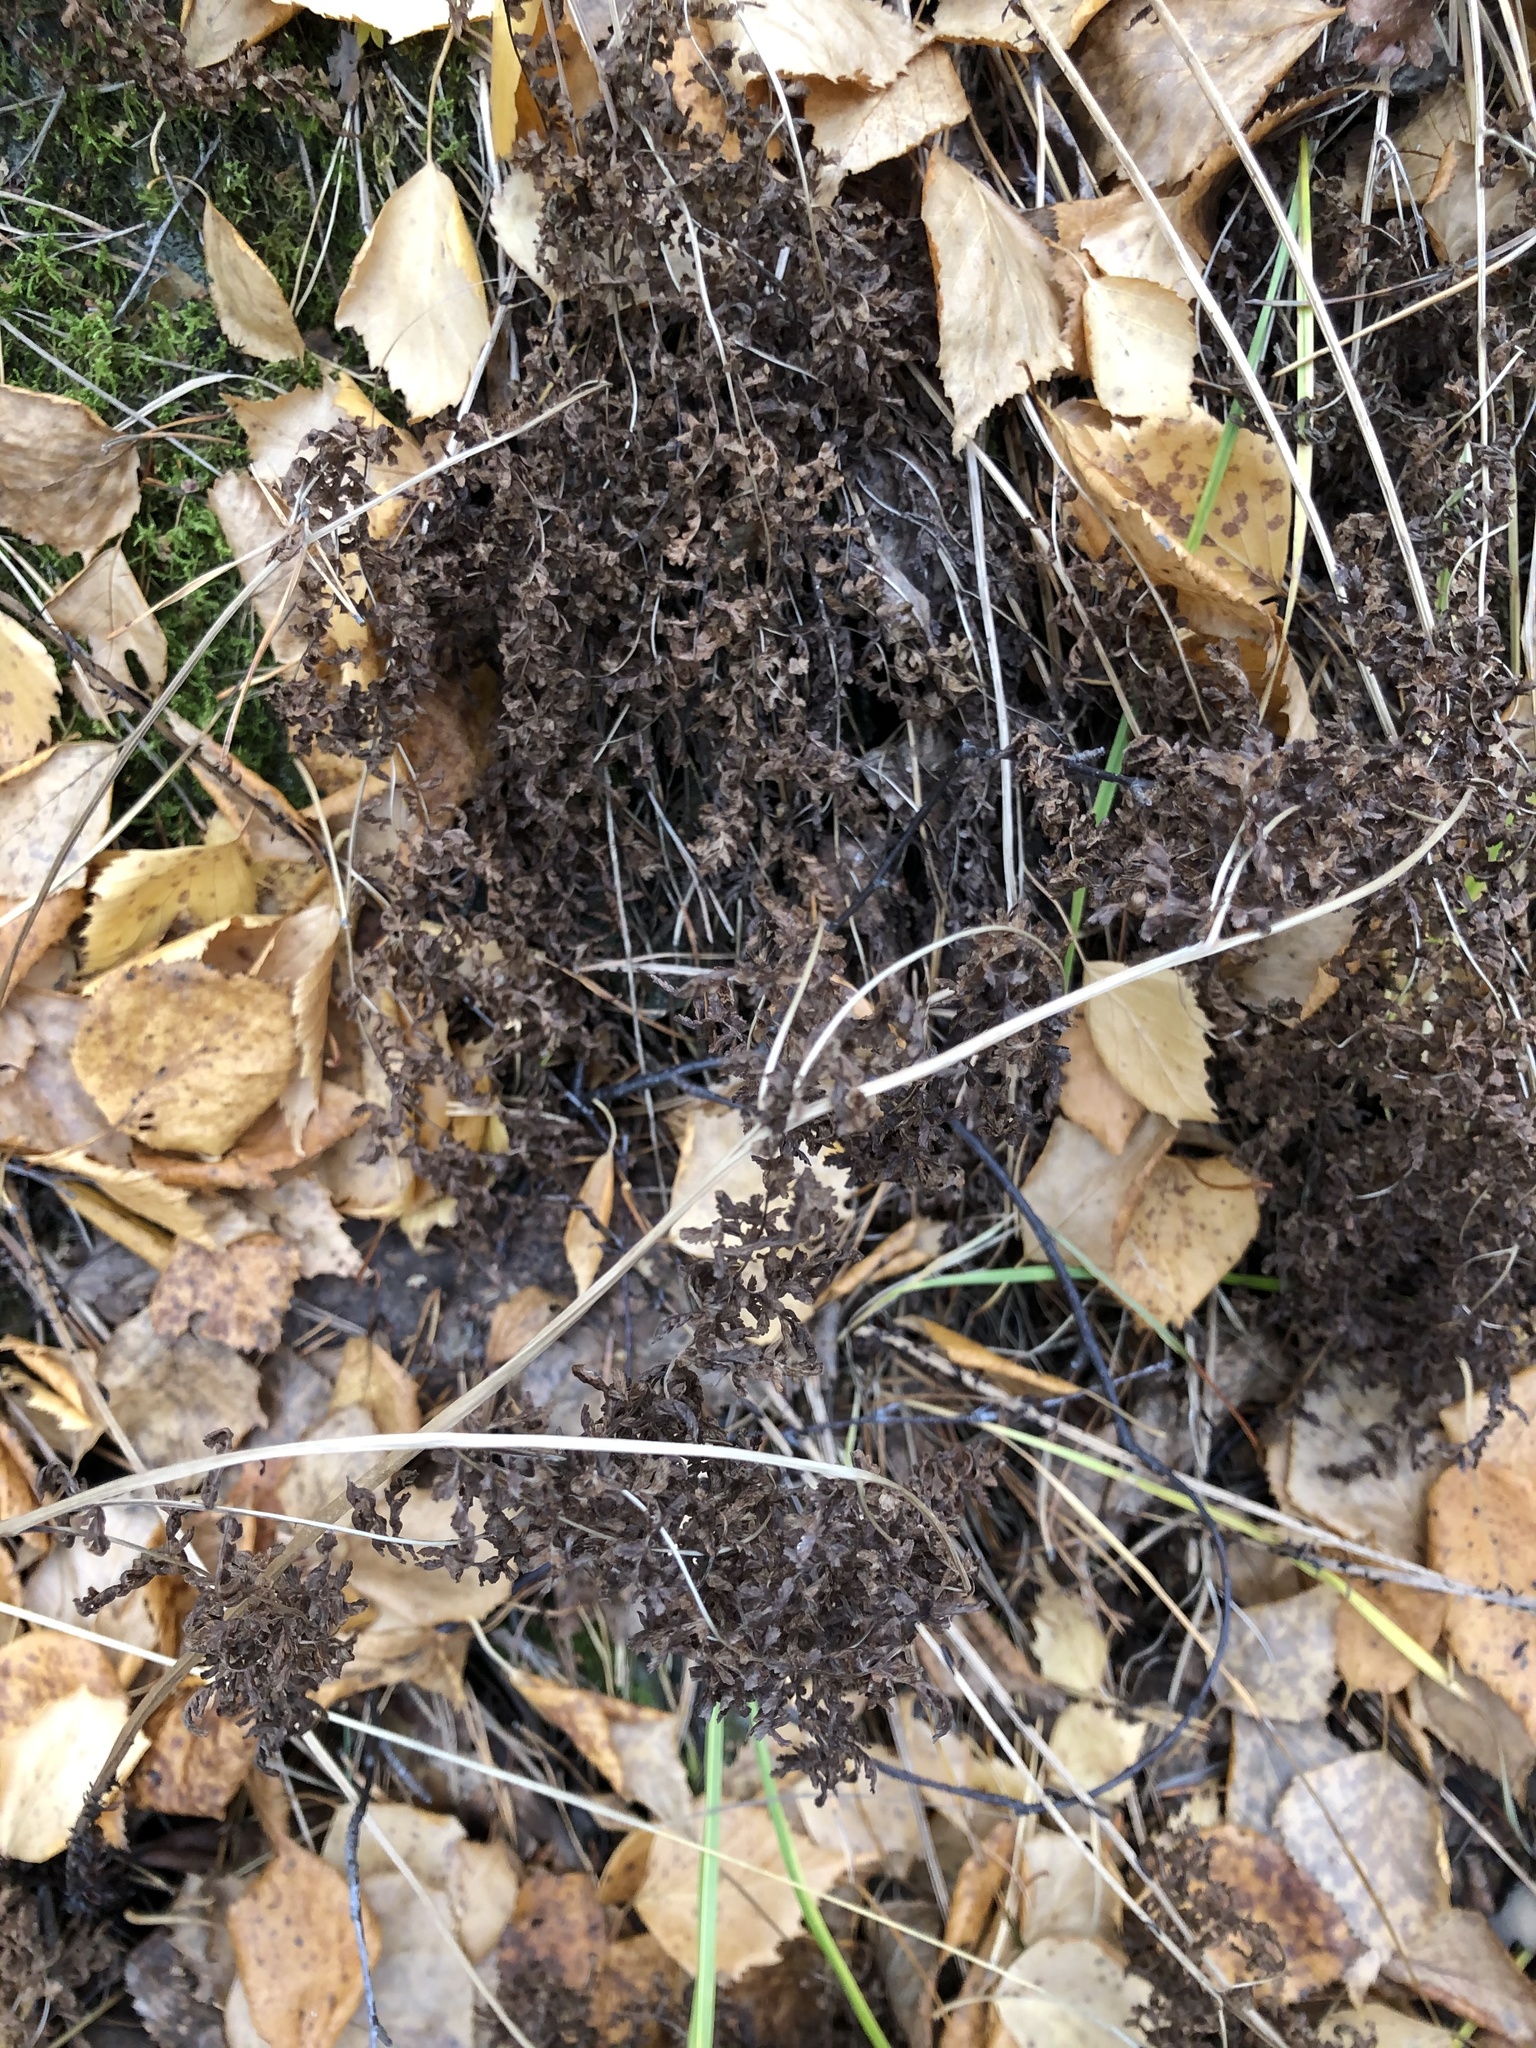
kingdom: Plantae
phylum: Tracheophyta
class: Polypodiopsida
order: Polypodiales
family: Athyriaceae
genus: Diplazium
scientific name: Diplazium sibiricum
